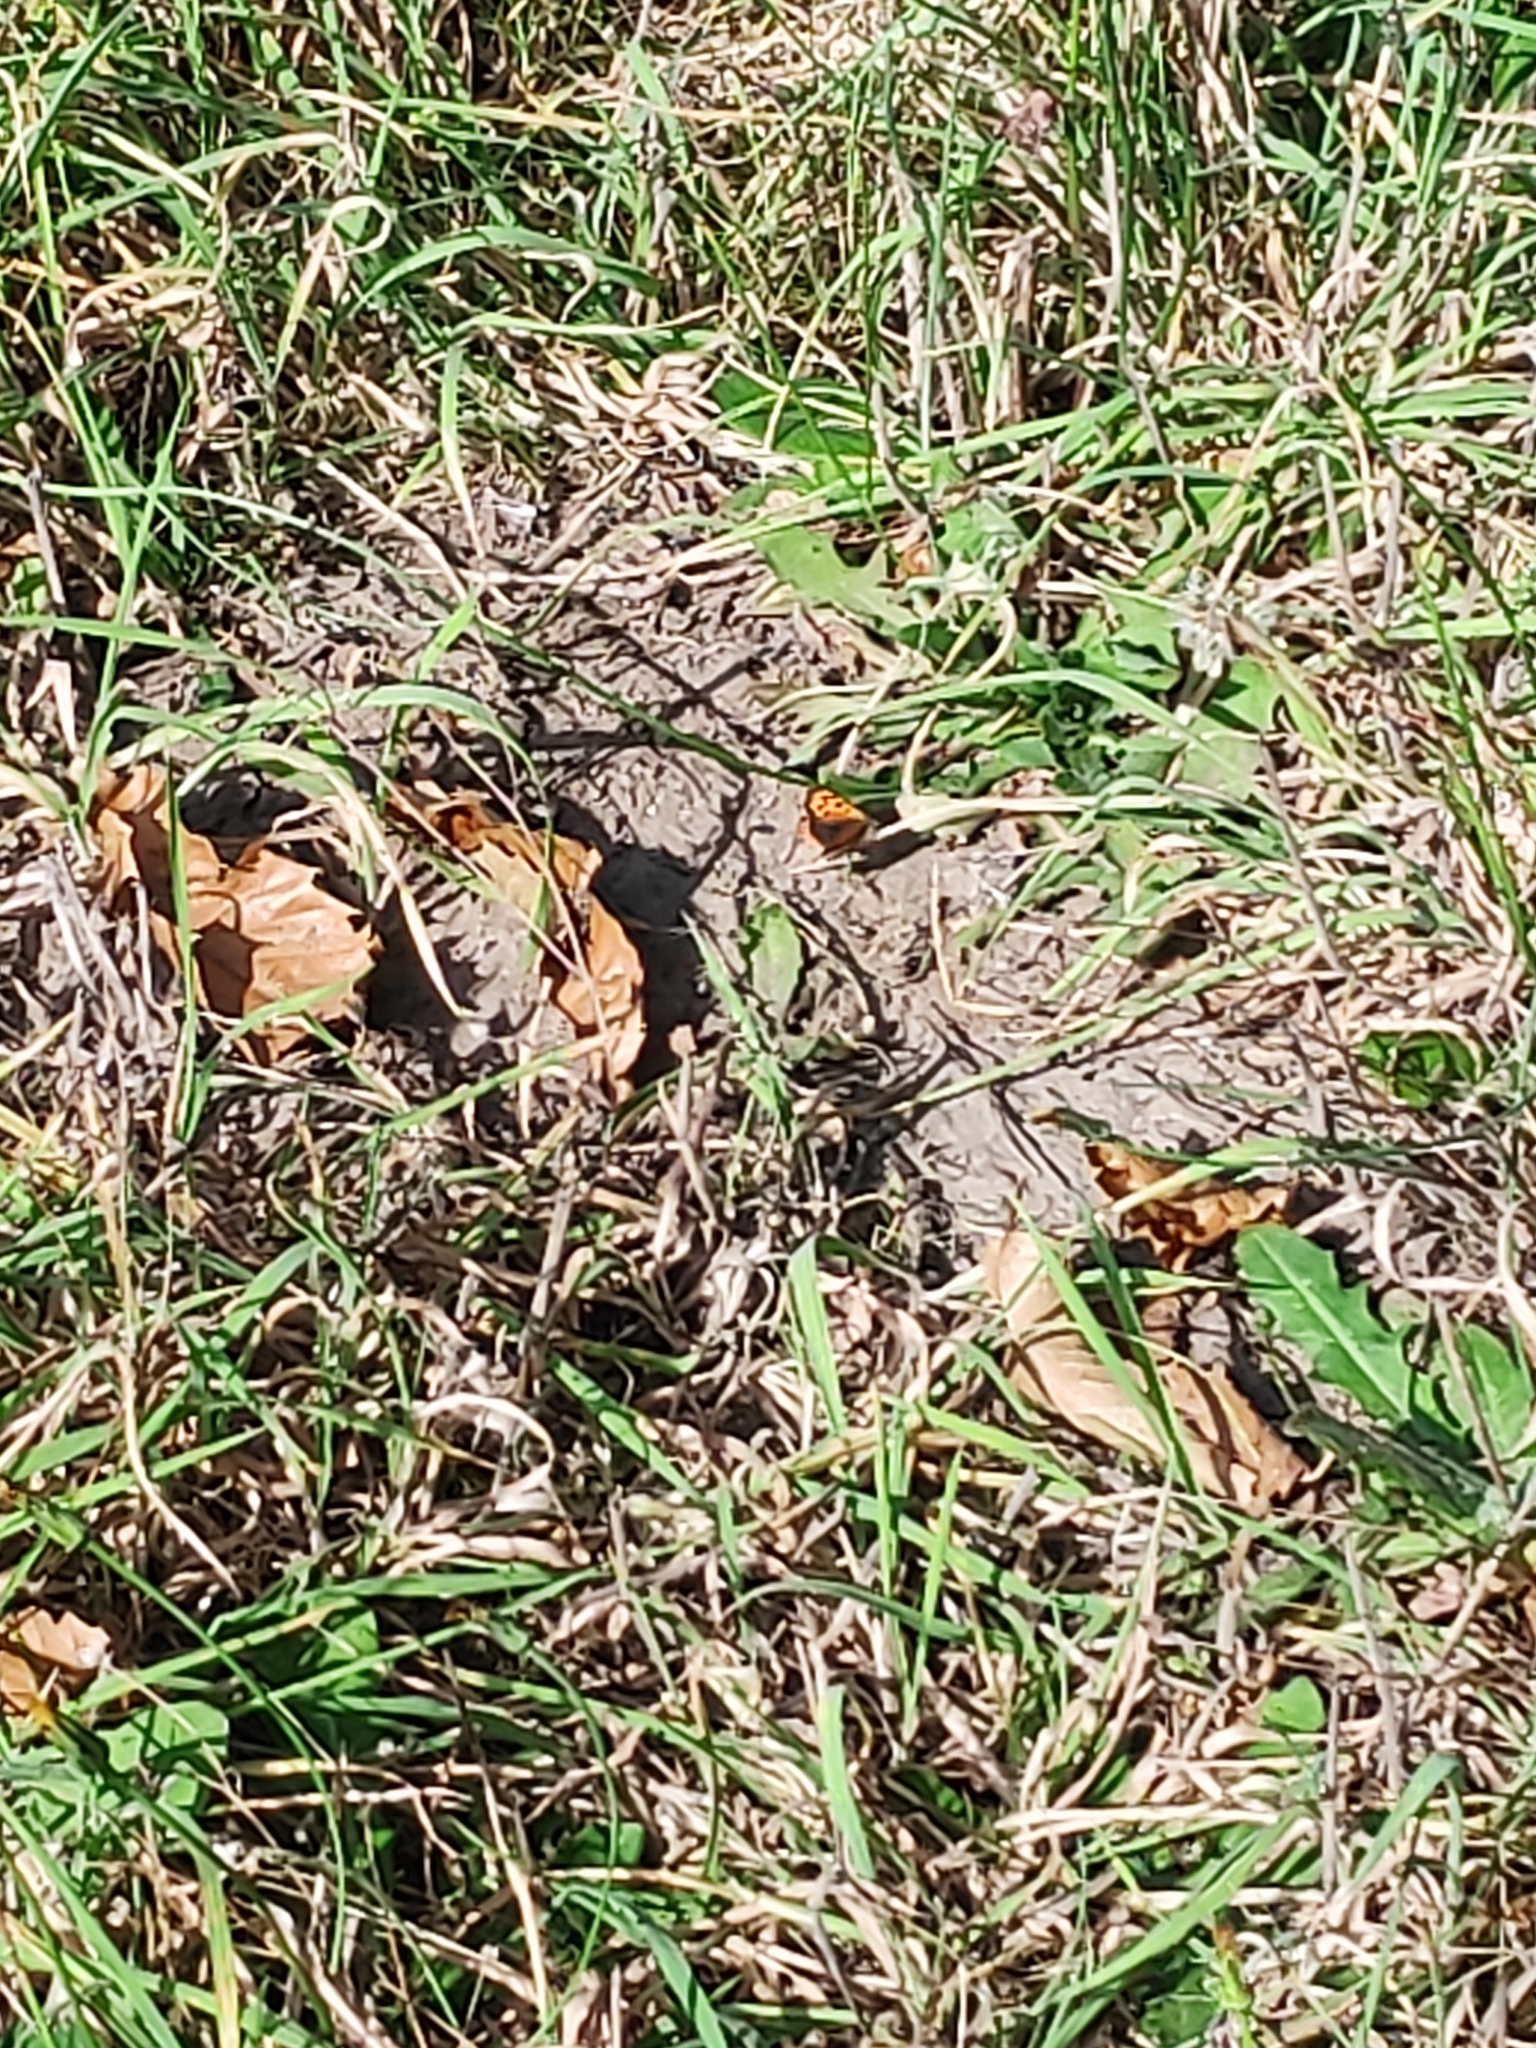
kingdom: Animalia
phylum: Arthropoda
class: Insecta
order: Lepidoptera
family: Lycaenidae
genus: Lycaena
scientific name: Lycaena phlaeas
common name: Small copper
